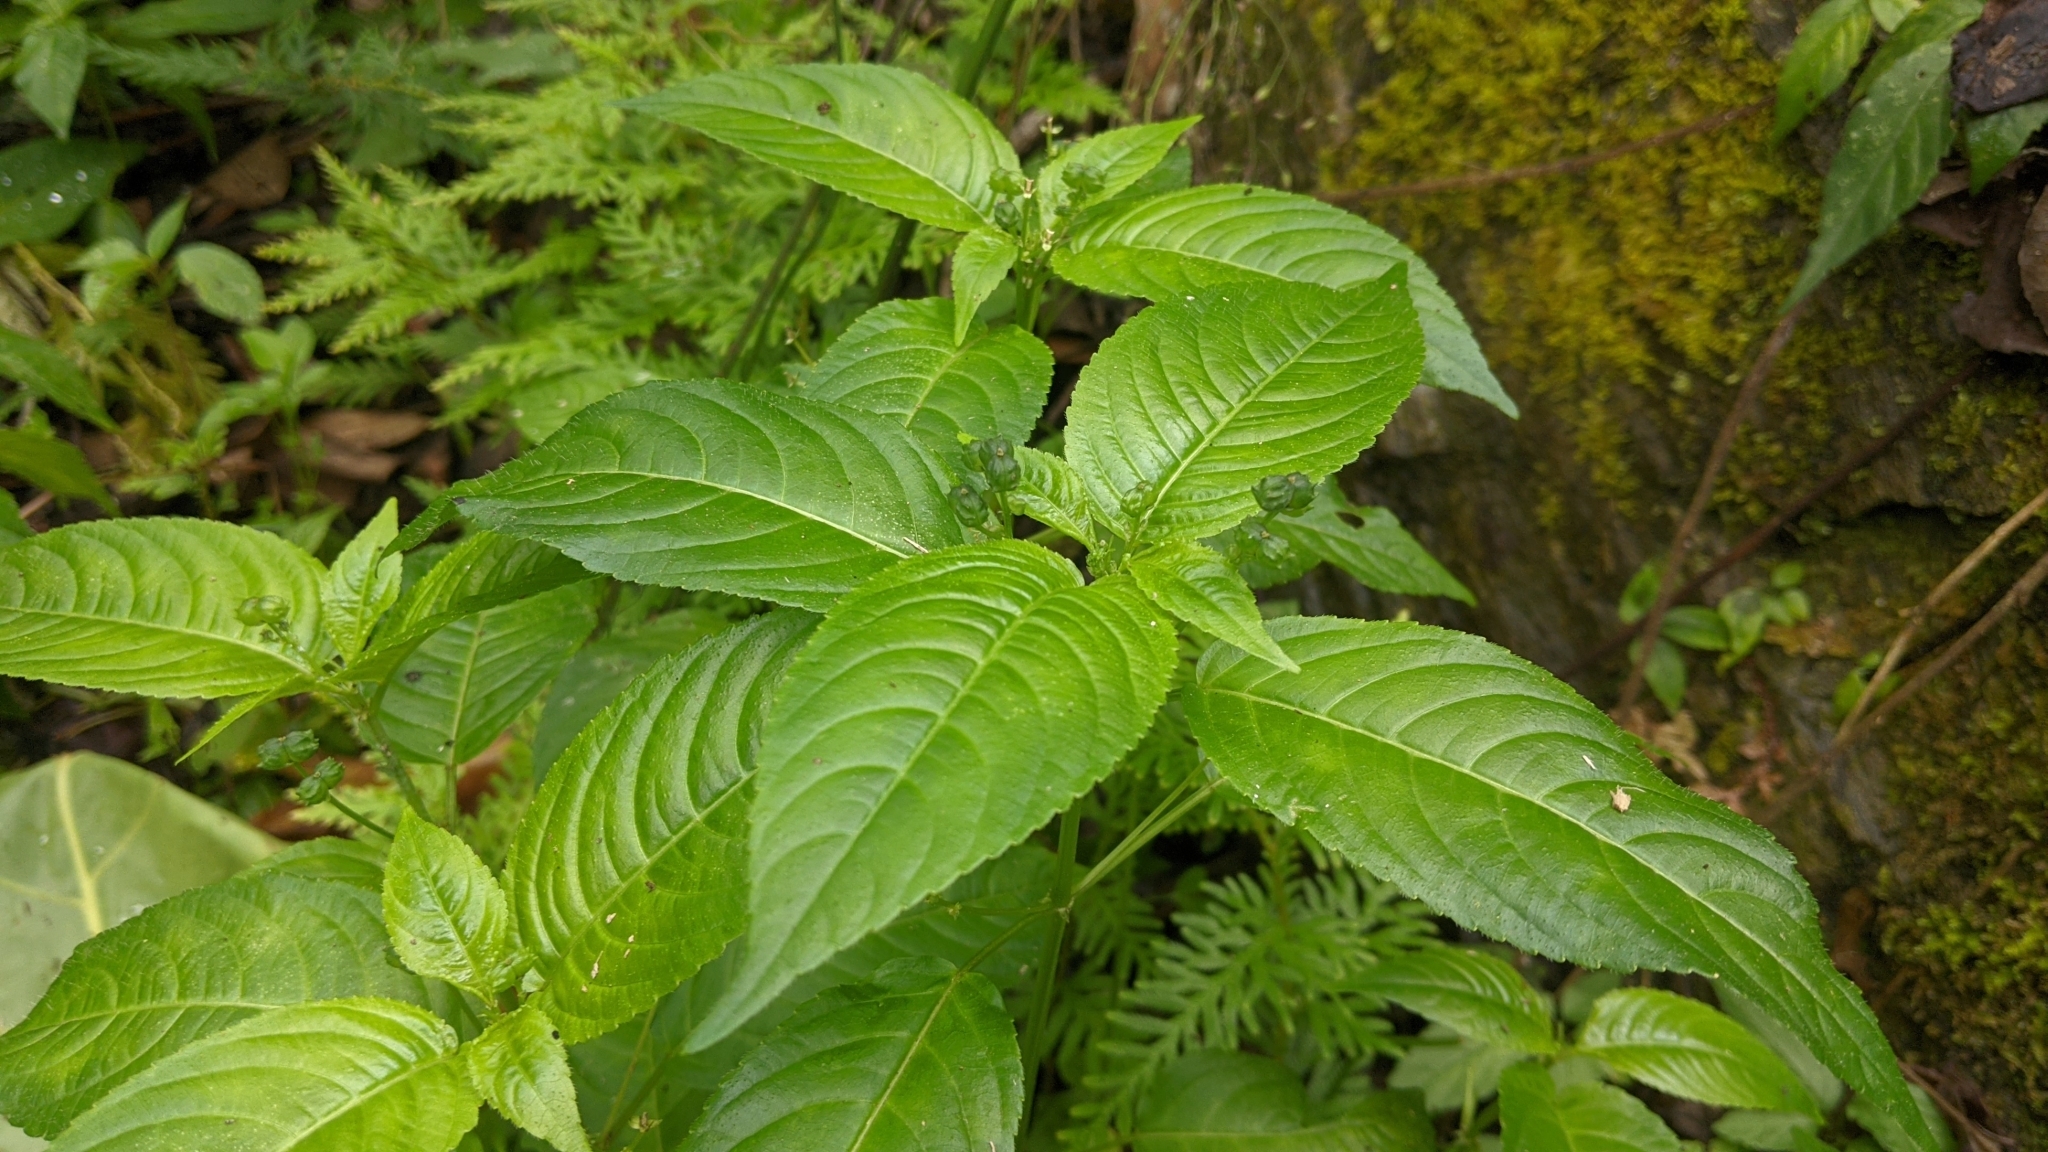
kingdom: Plantae
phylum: Tracheophyta
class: Magnoliopsida
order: Malpighiales
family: Euphorbiaceae
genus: Mercurialis
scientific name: Mercurialis leiocarpa
